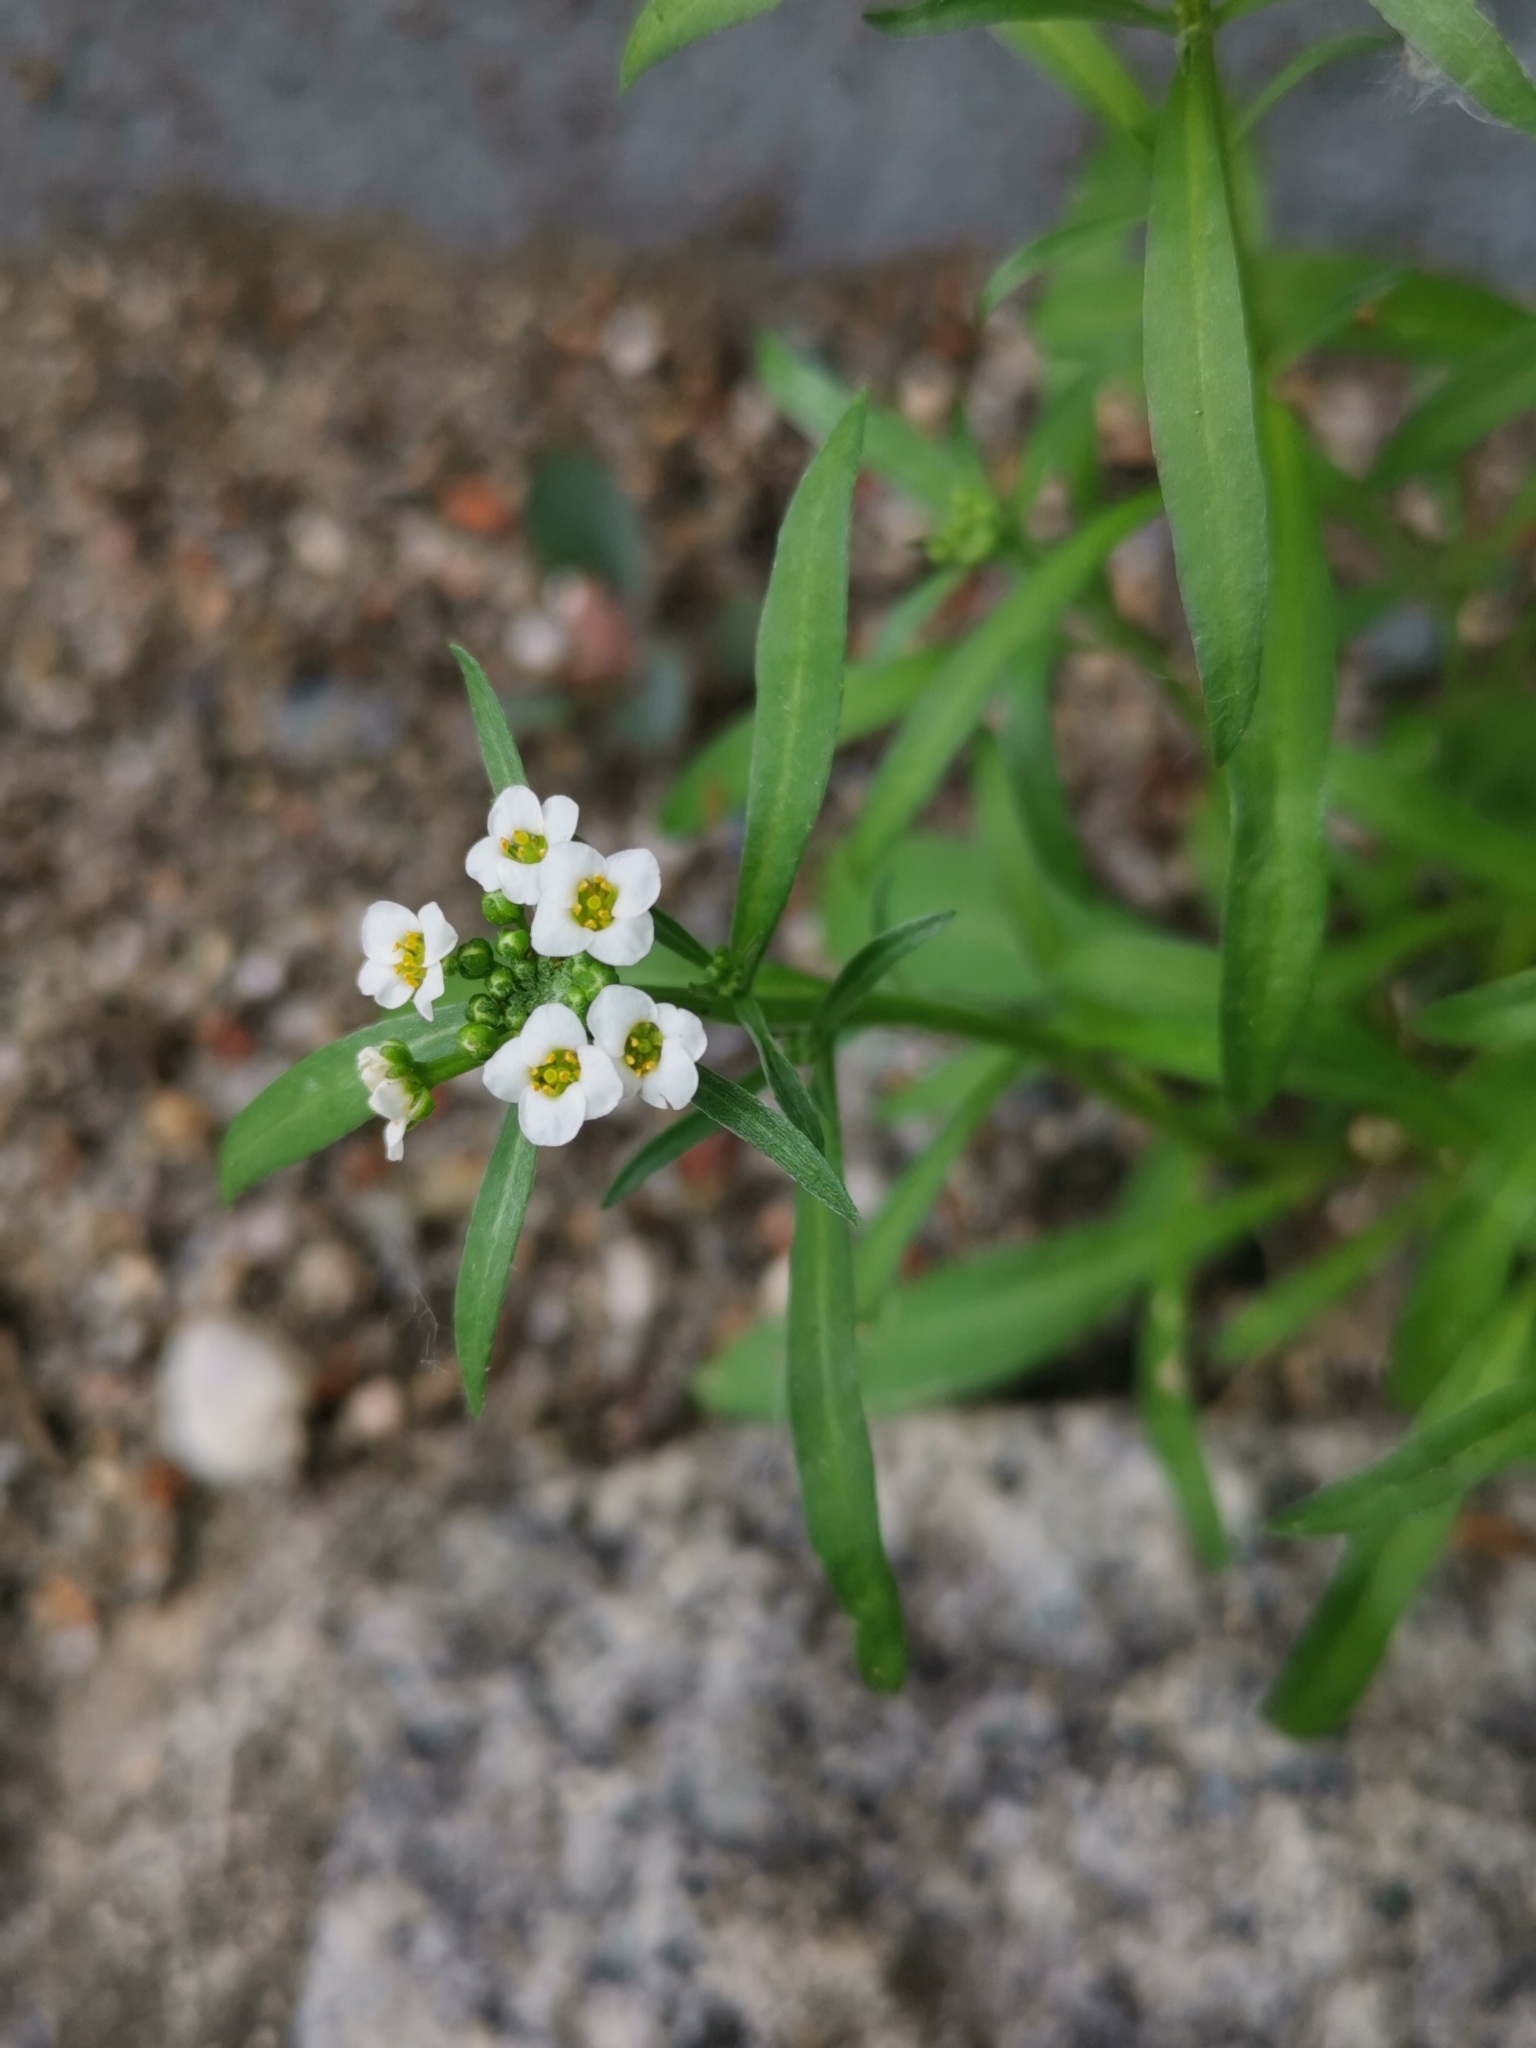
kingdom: Plantae
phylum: Tracheophyta
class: Magnoliopsida
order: Brassicales
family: Brassicaceae
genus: Lobularia
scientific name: Lobularia maritima
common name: Sweet alison
